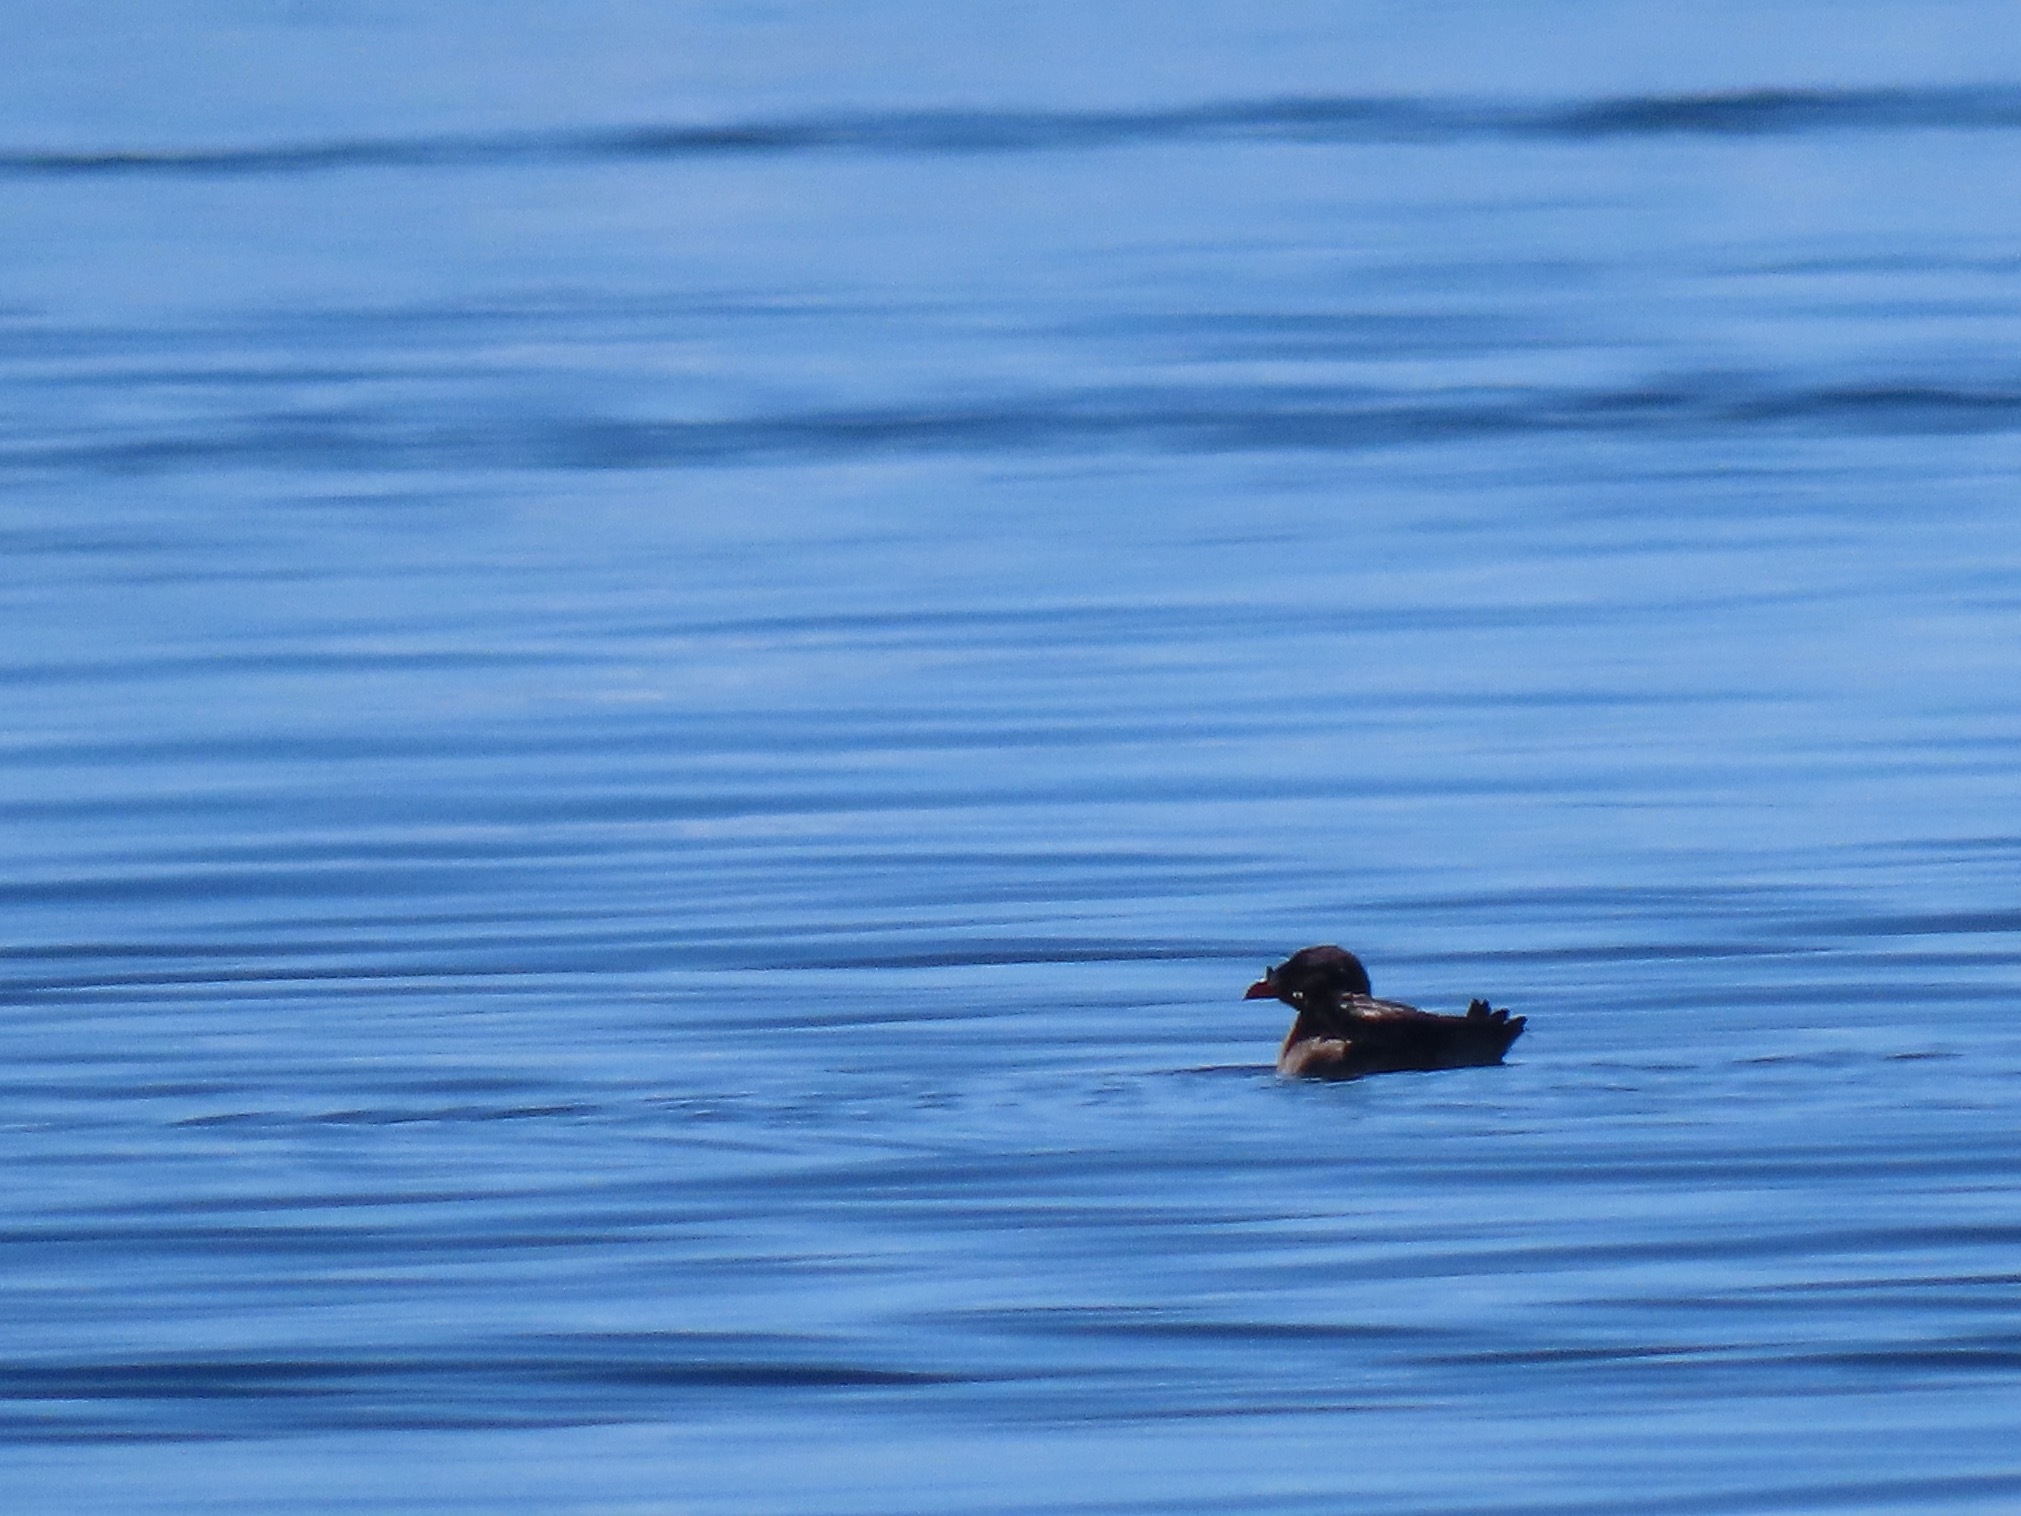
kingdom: Animalia
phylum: Chordata
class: Aves
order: Charadriiformes
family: Alcidae
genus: Cerorhinca
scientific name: Cerorhinca monocerata
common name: Rhinoceros auklet
